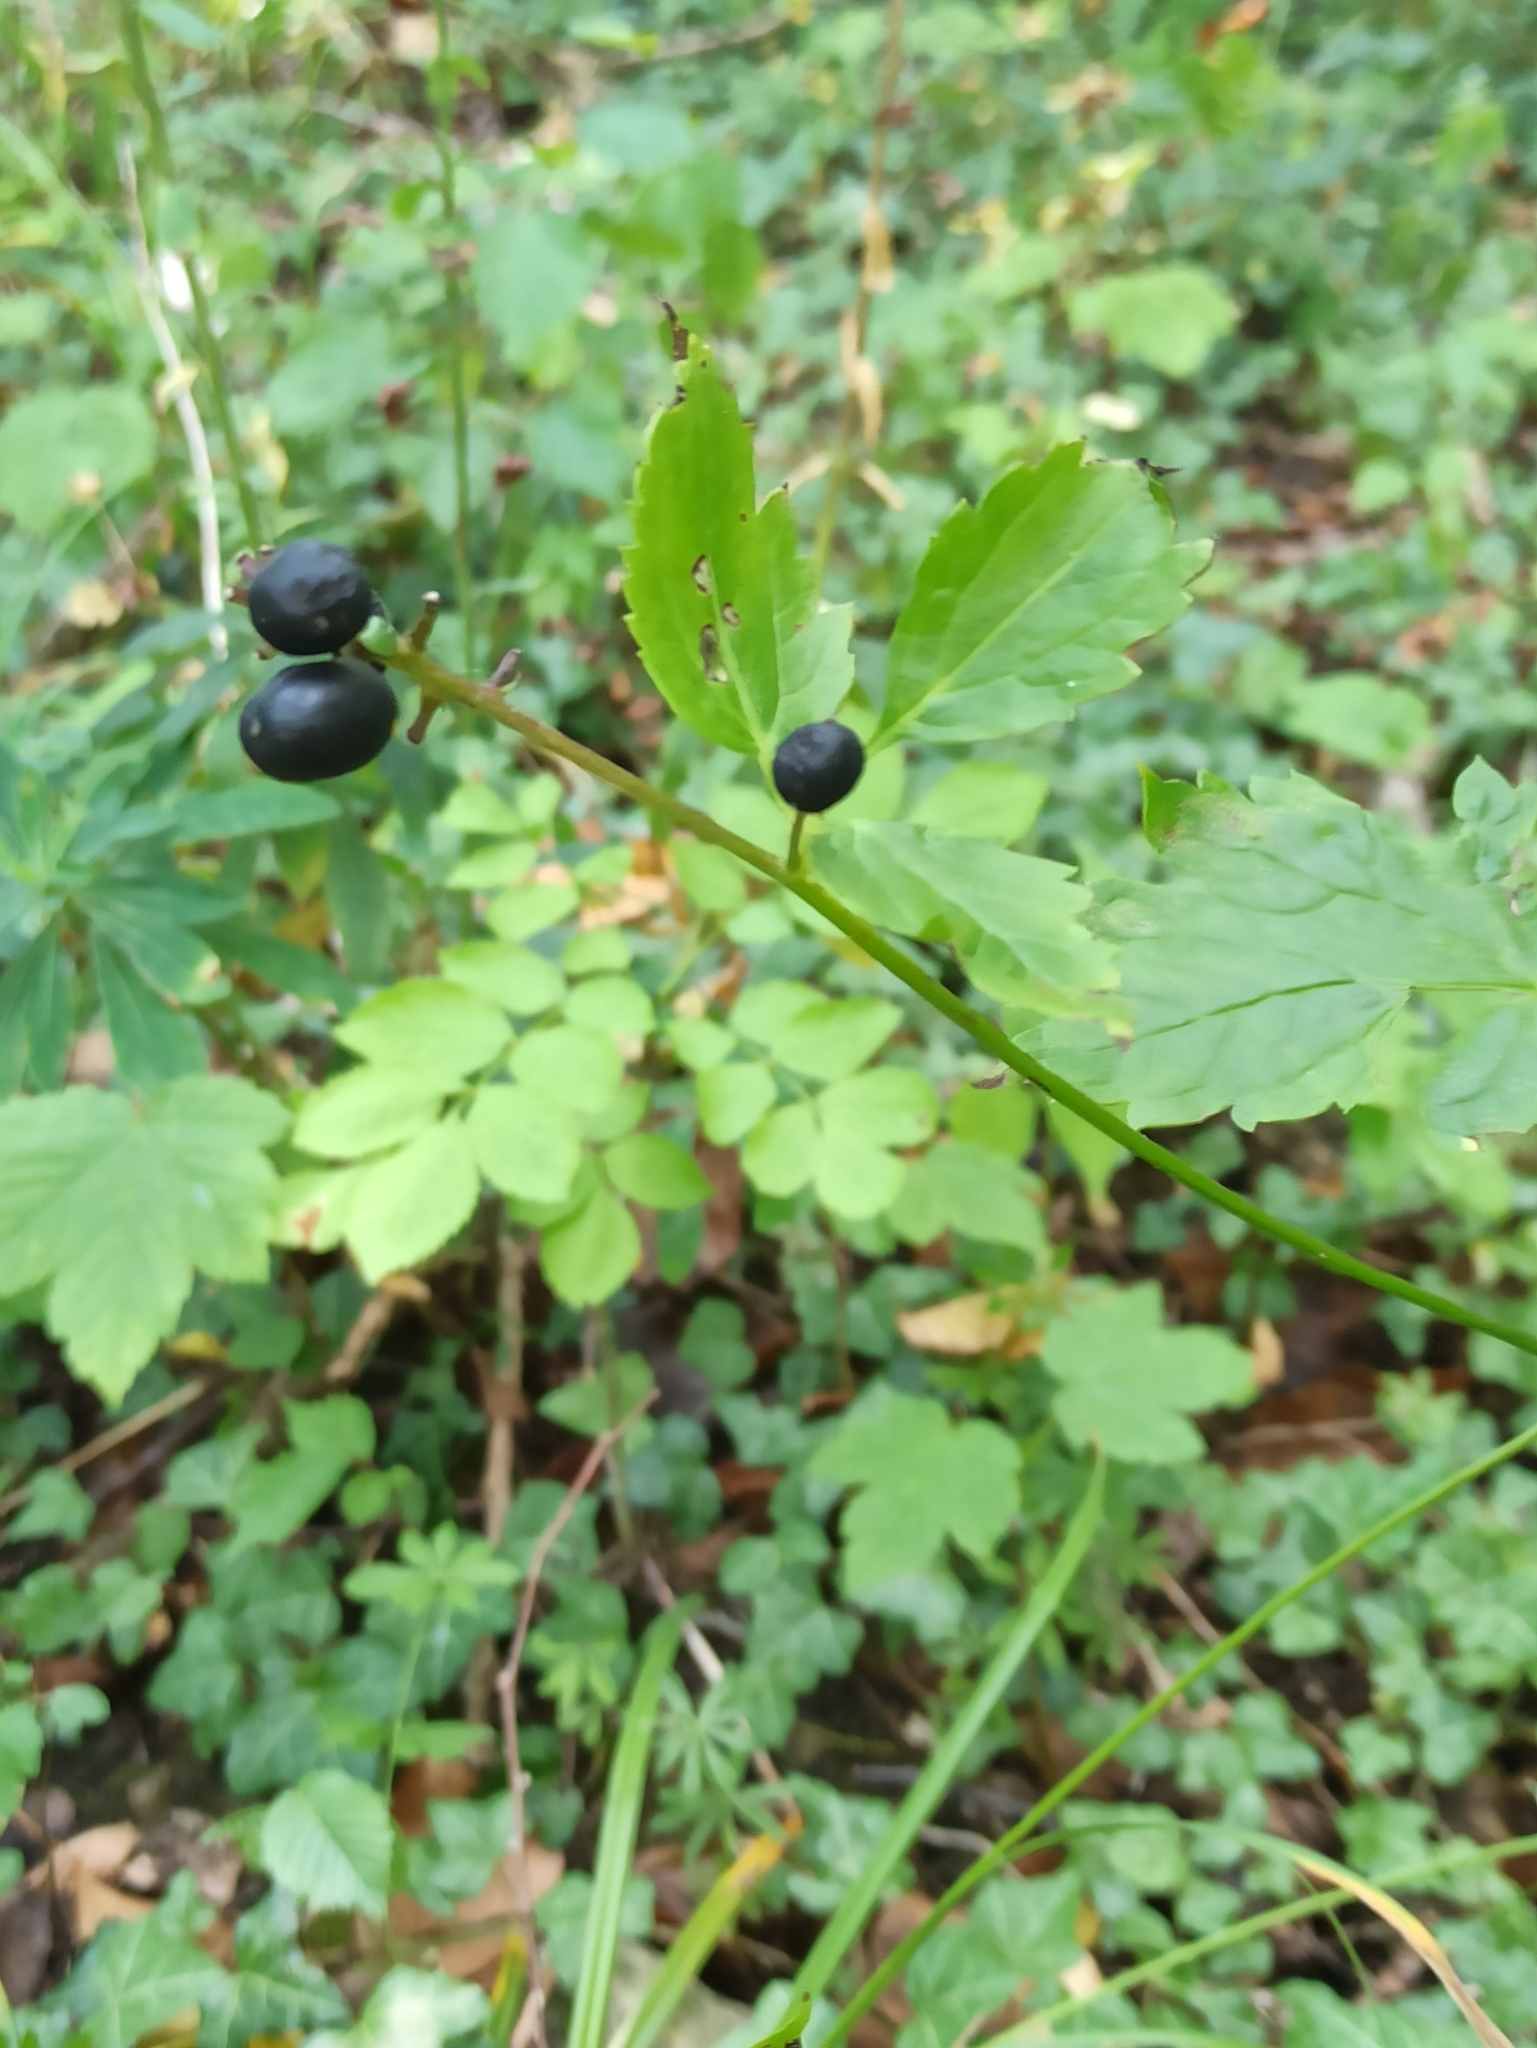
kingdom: Plantae
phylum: Tracheophyta
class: Magnoliopsida
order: Ranunculales
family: Ranunculaceae
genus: Actaea
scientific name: Actaea spicata
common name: Baneberry
